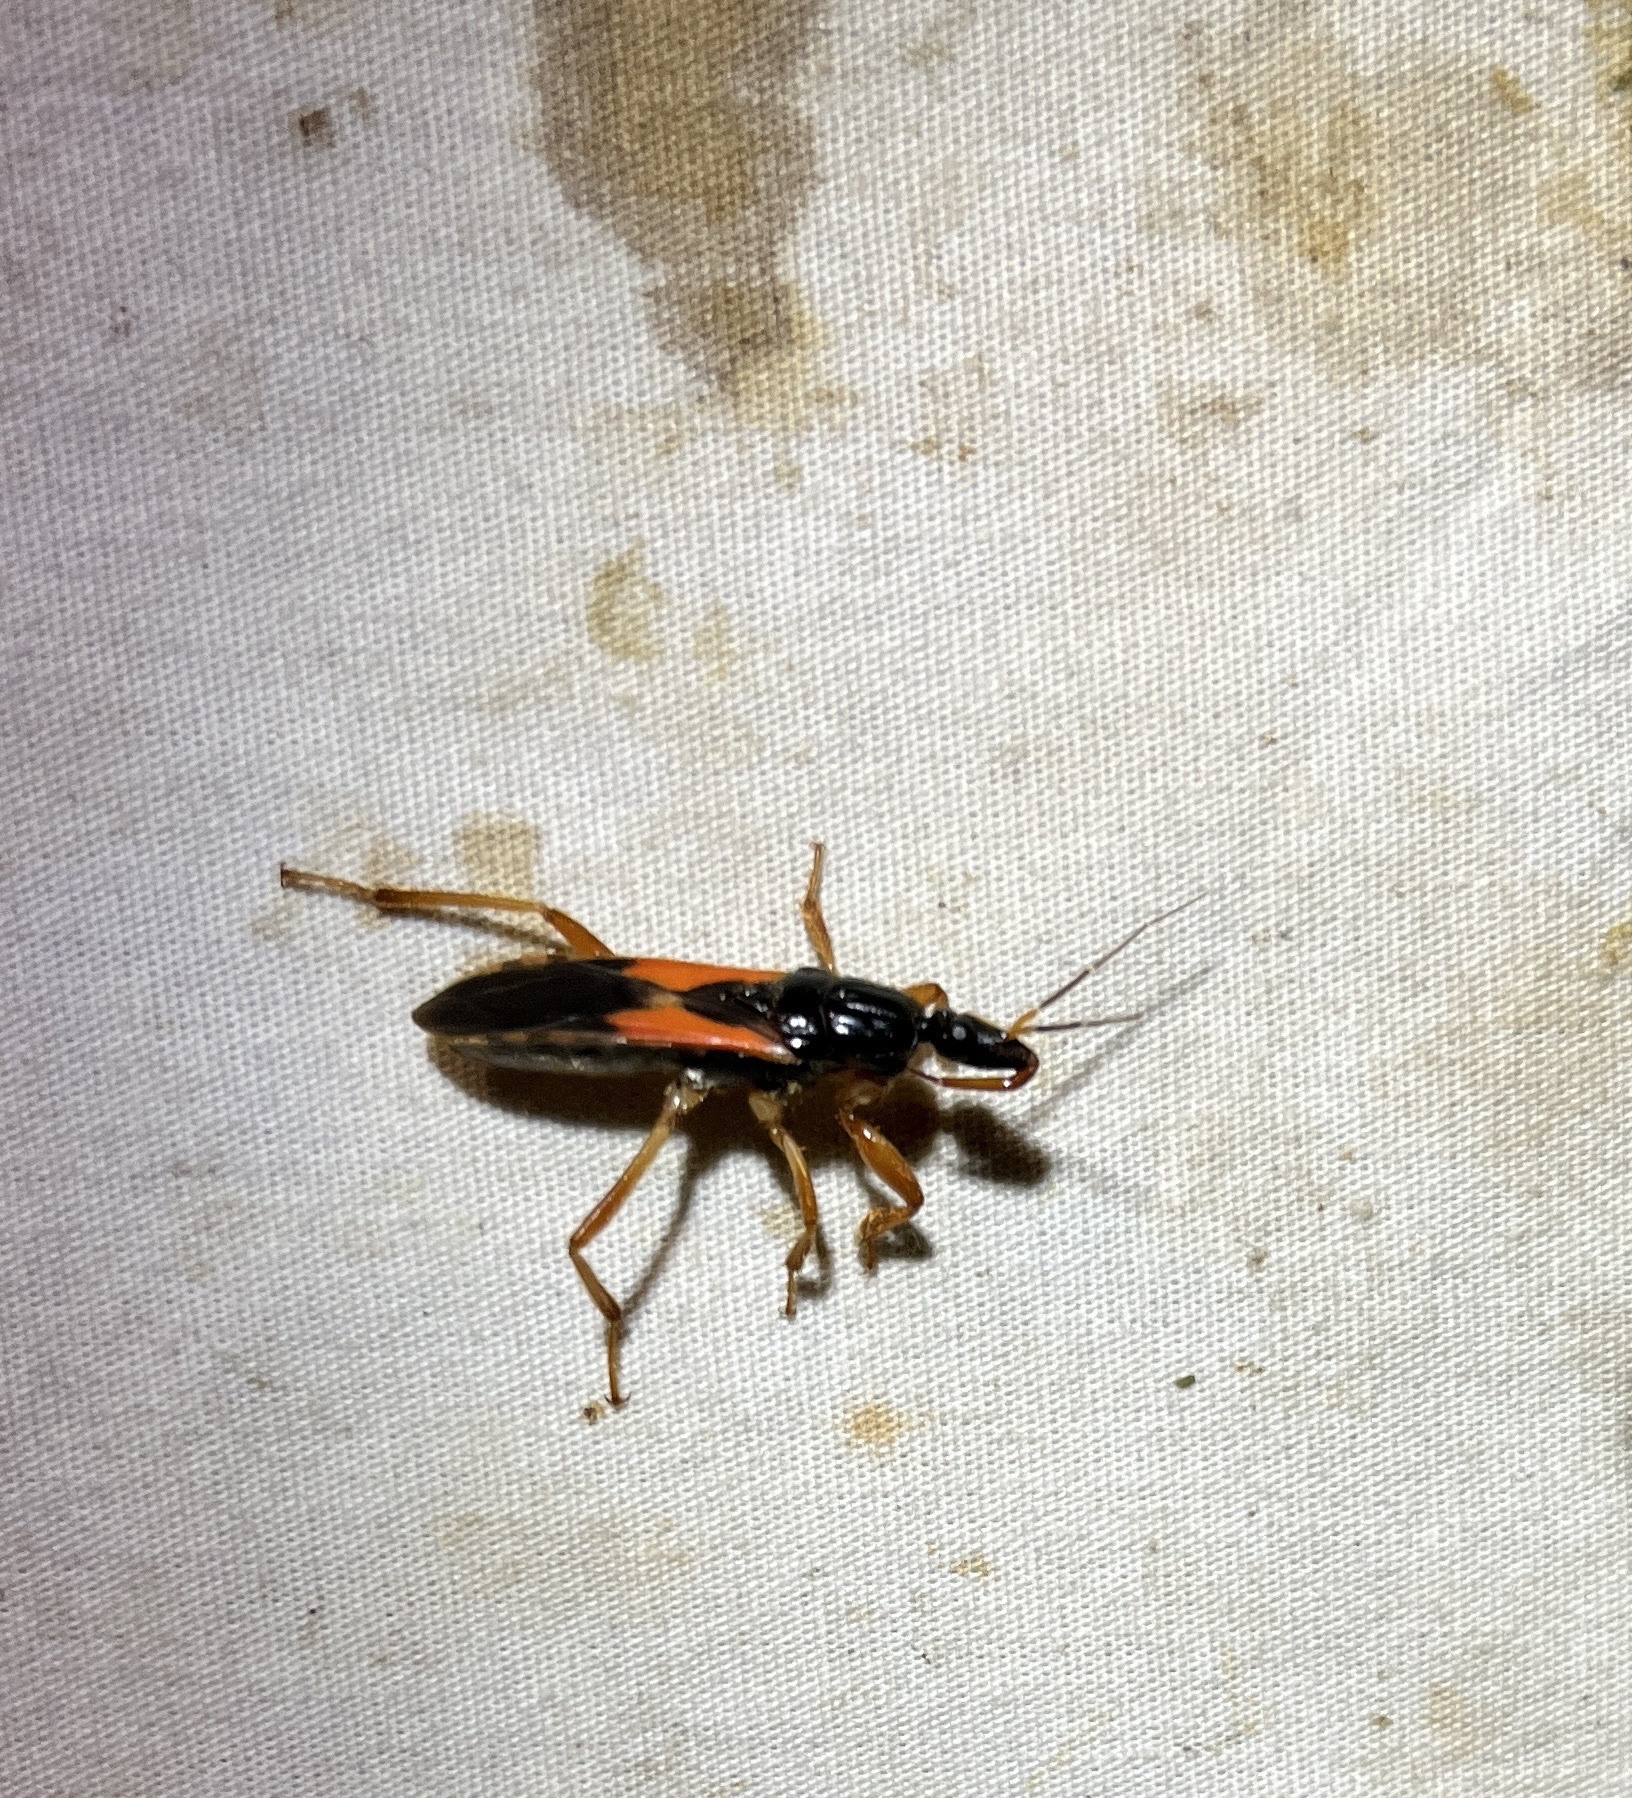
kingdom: Animalia
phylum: Arthropoda
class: Insecta
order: Hemiptera
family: Reduviidae
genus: Sirthenea
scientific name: Sirthenea stria
